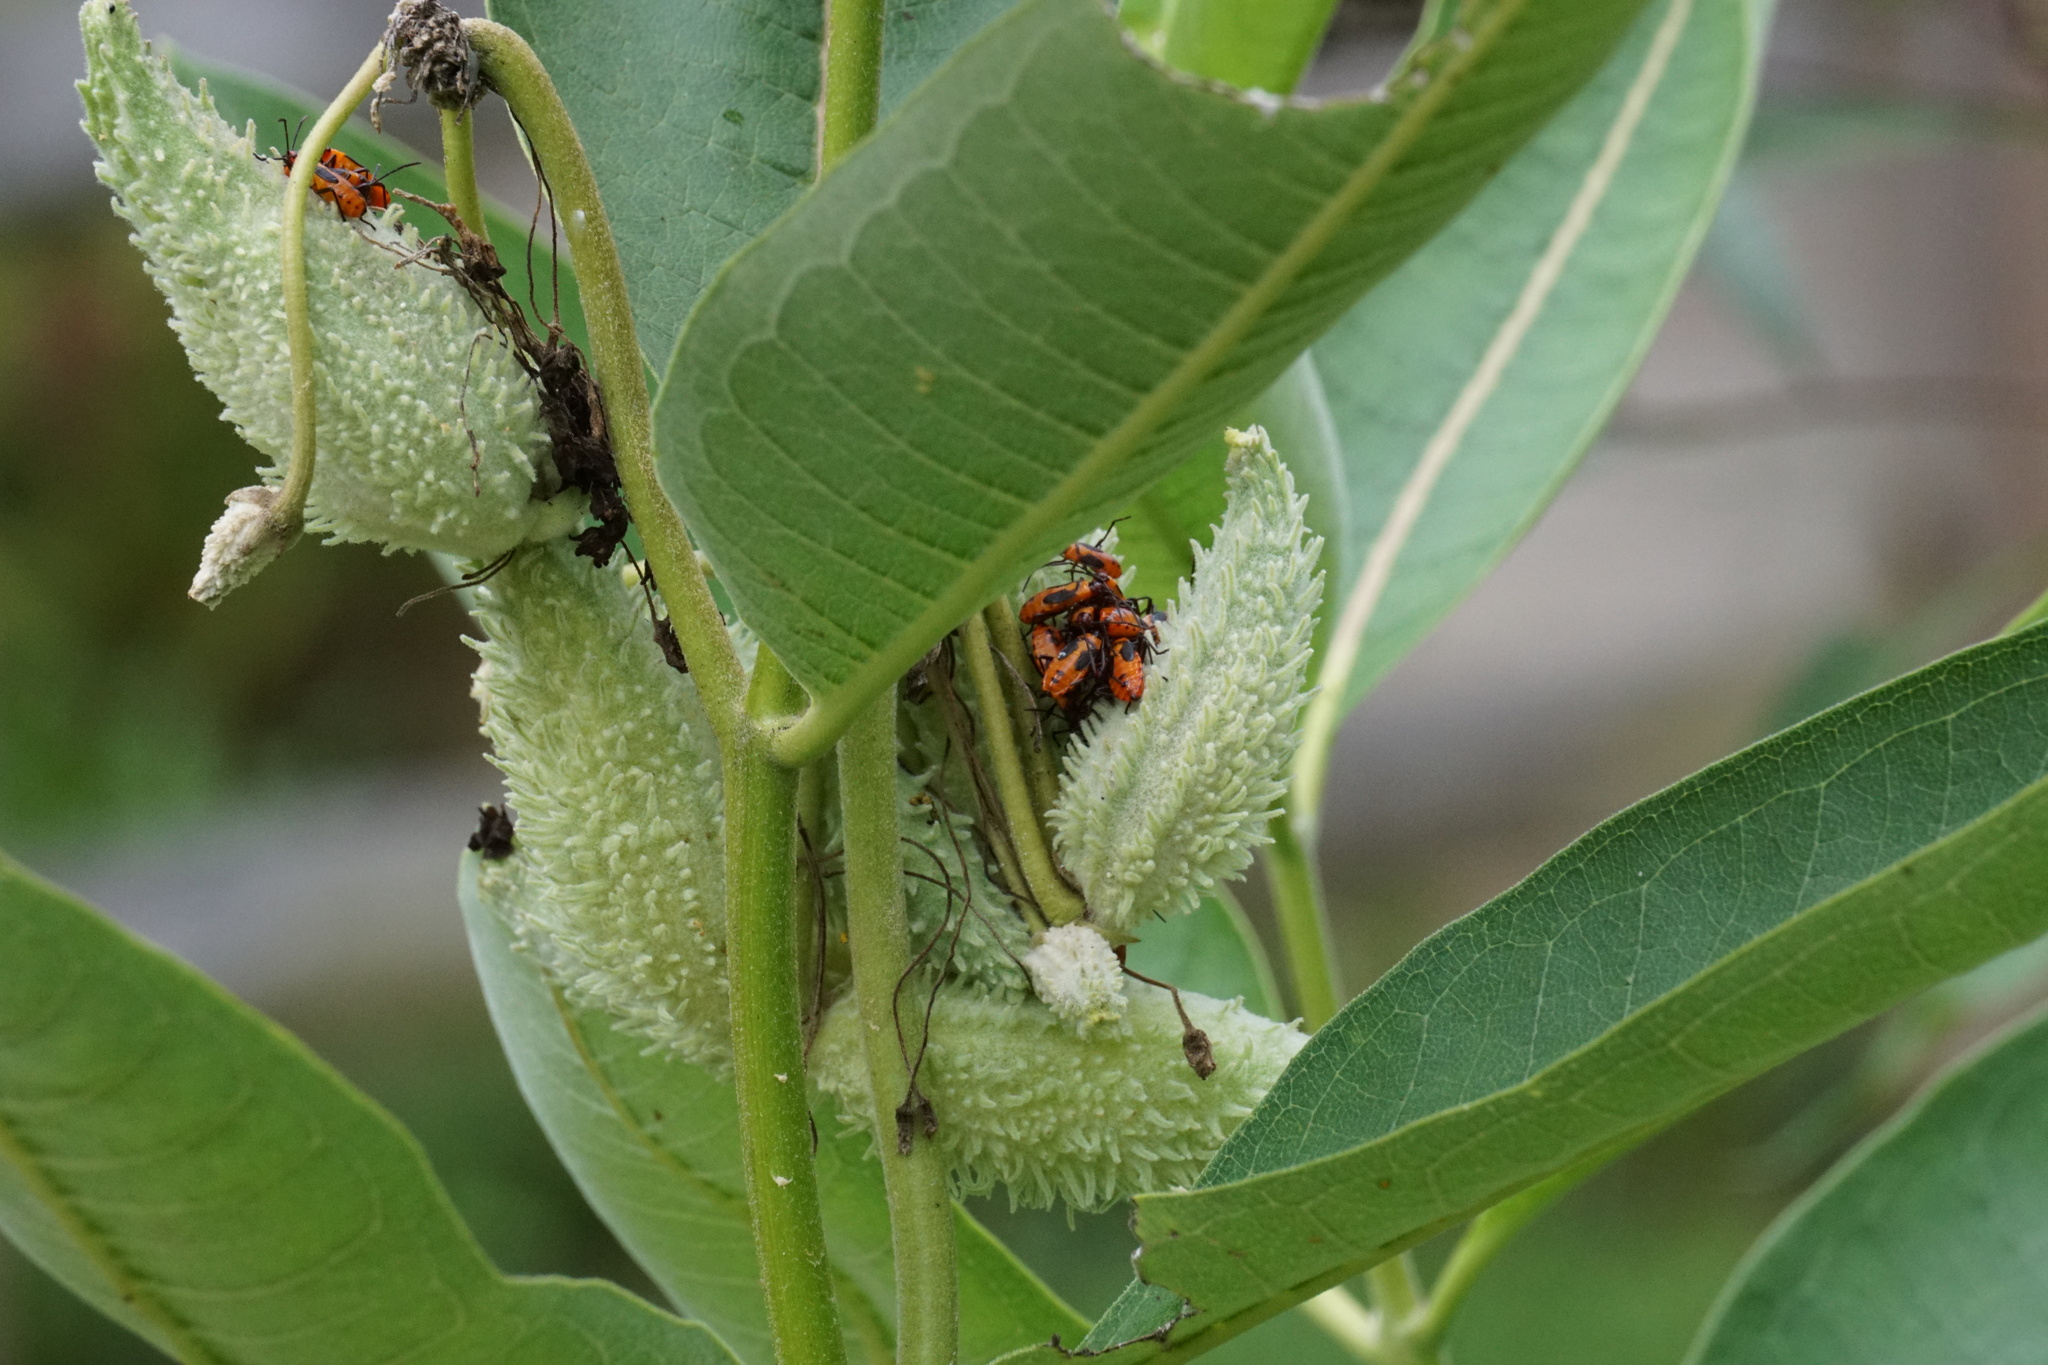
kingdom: Animalia
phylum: Arthropoda
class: Insecta
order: Hemiptera
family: Lygaeidae
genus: Oncopeltus
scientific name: Oncopeltus fasciatus
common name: Large milkweed bug
